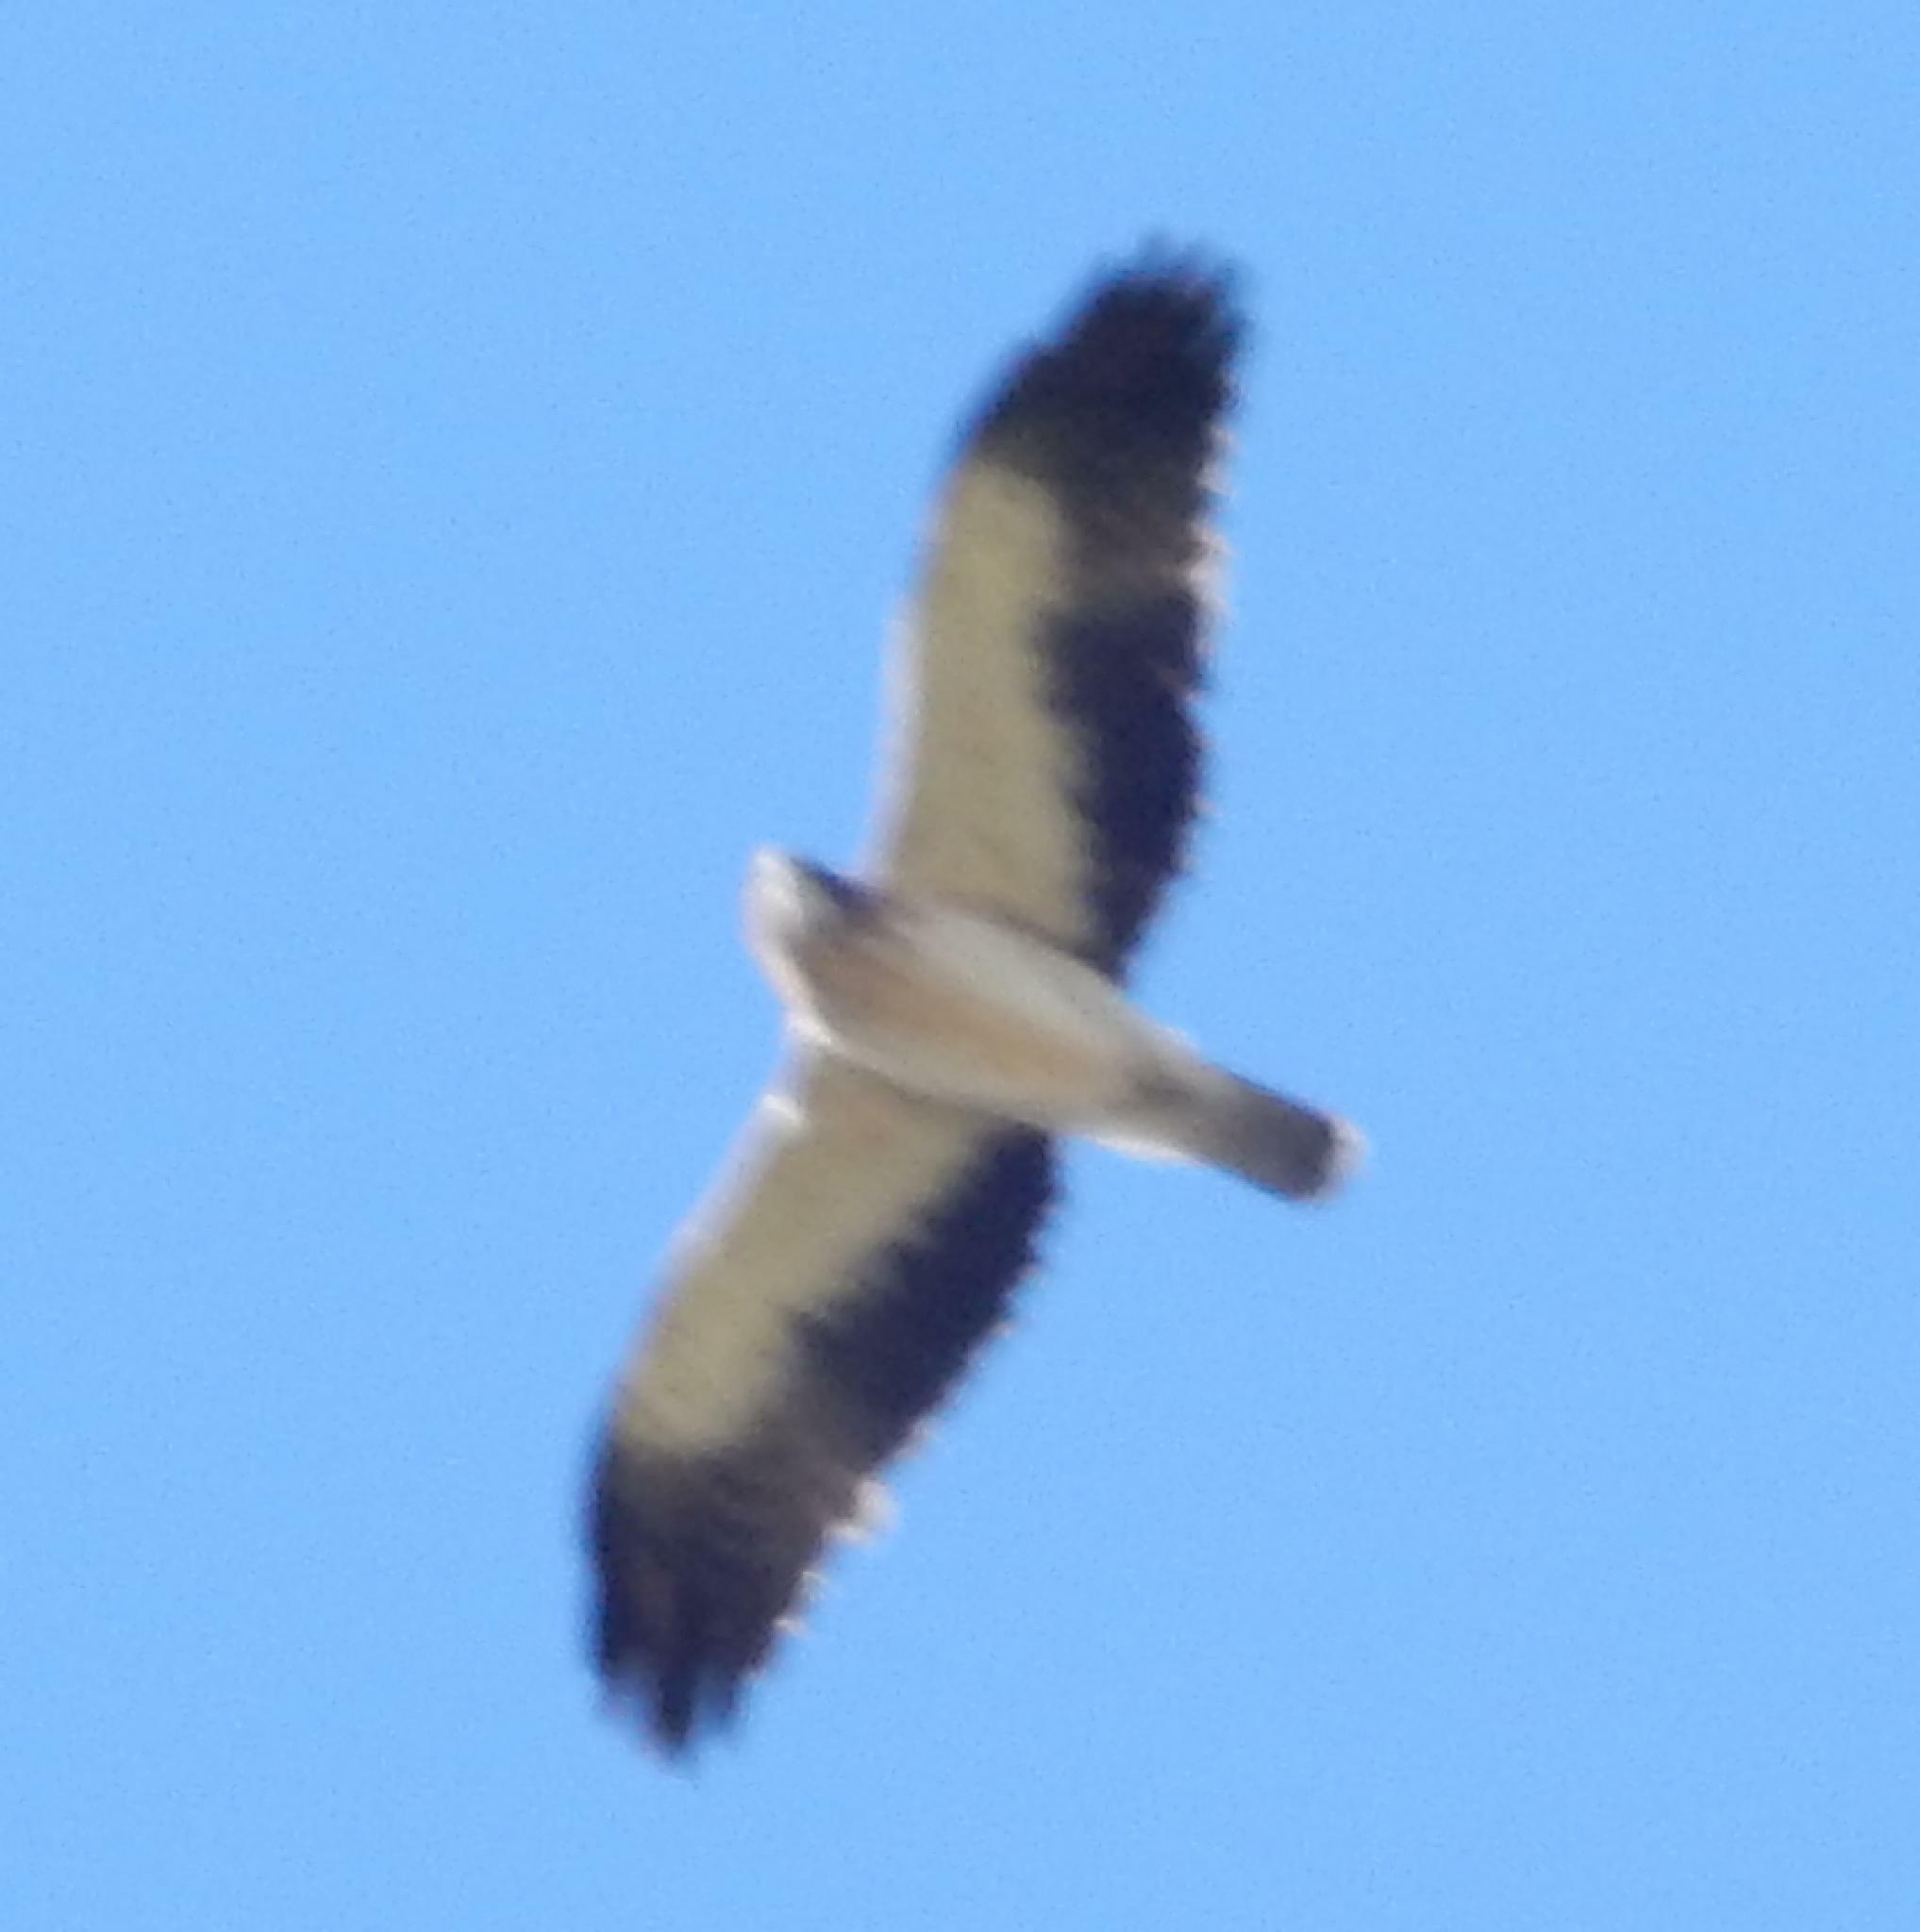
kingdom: Animalia
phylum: Chordata
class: Aves
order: Accipitriformes
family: Accipitridae
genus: Hieraaetus
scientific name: Hieraaetus pennatus
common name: Booted eagle
